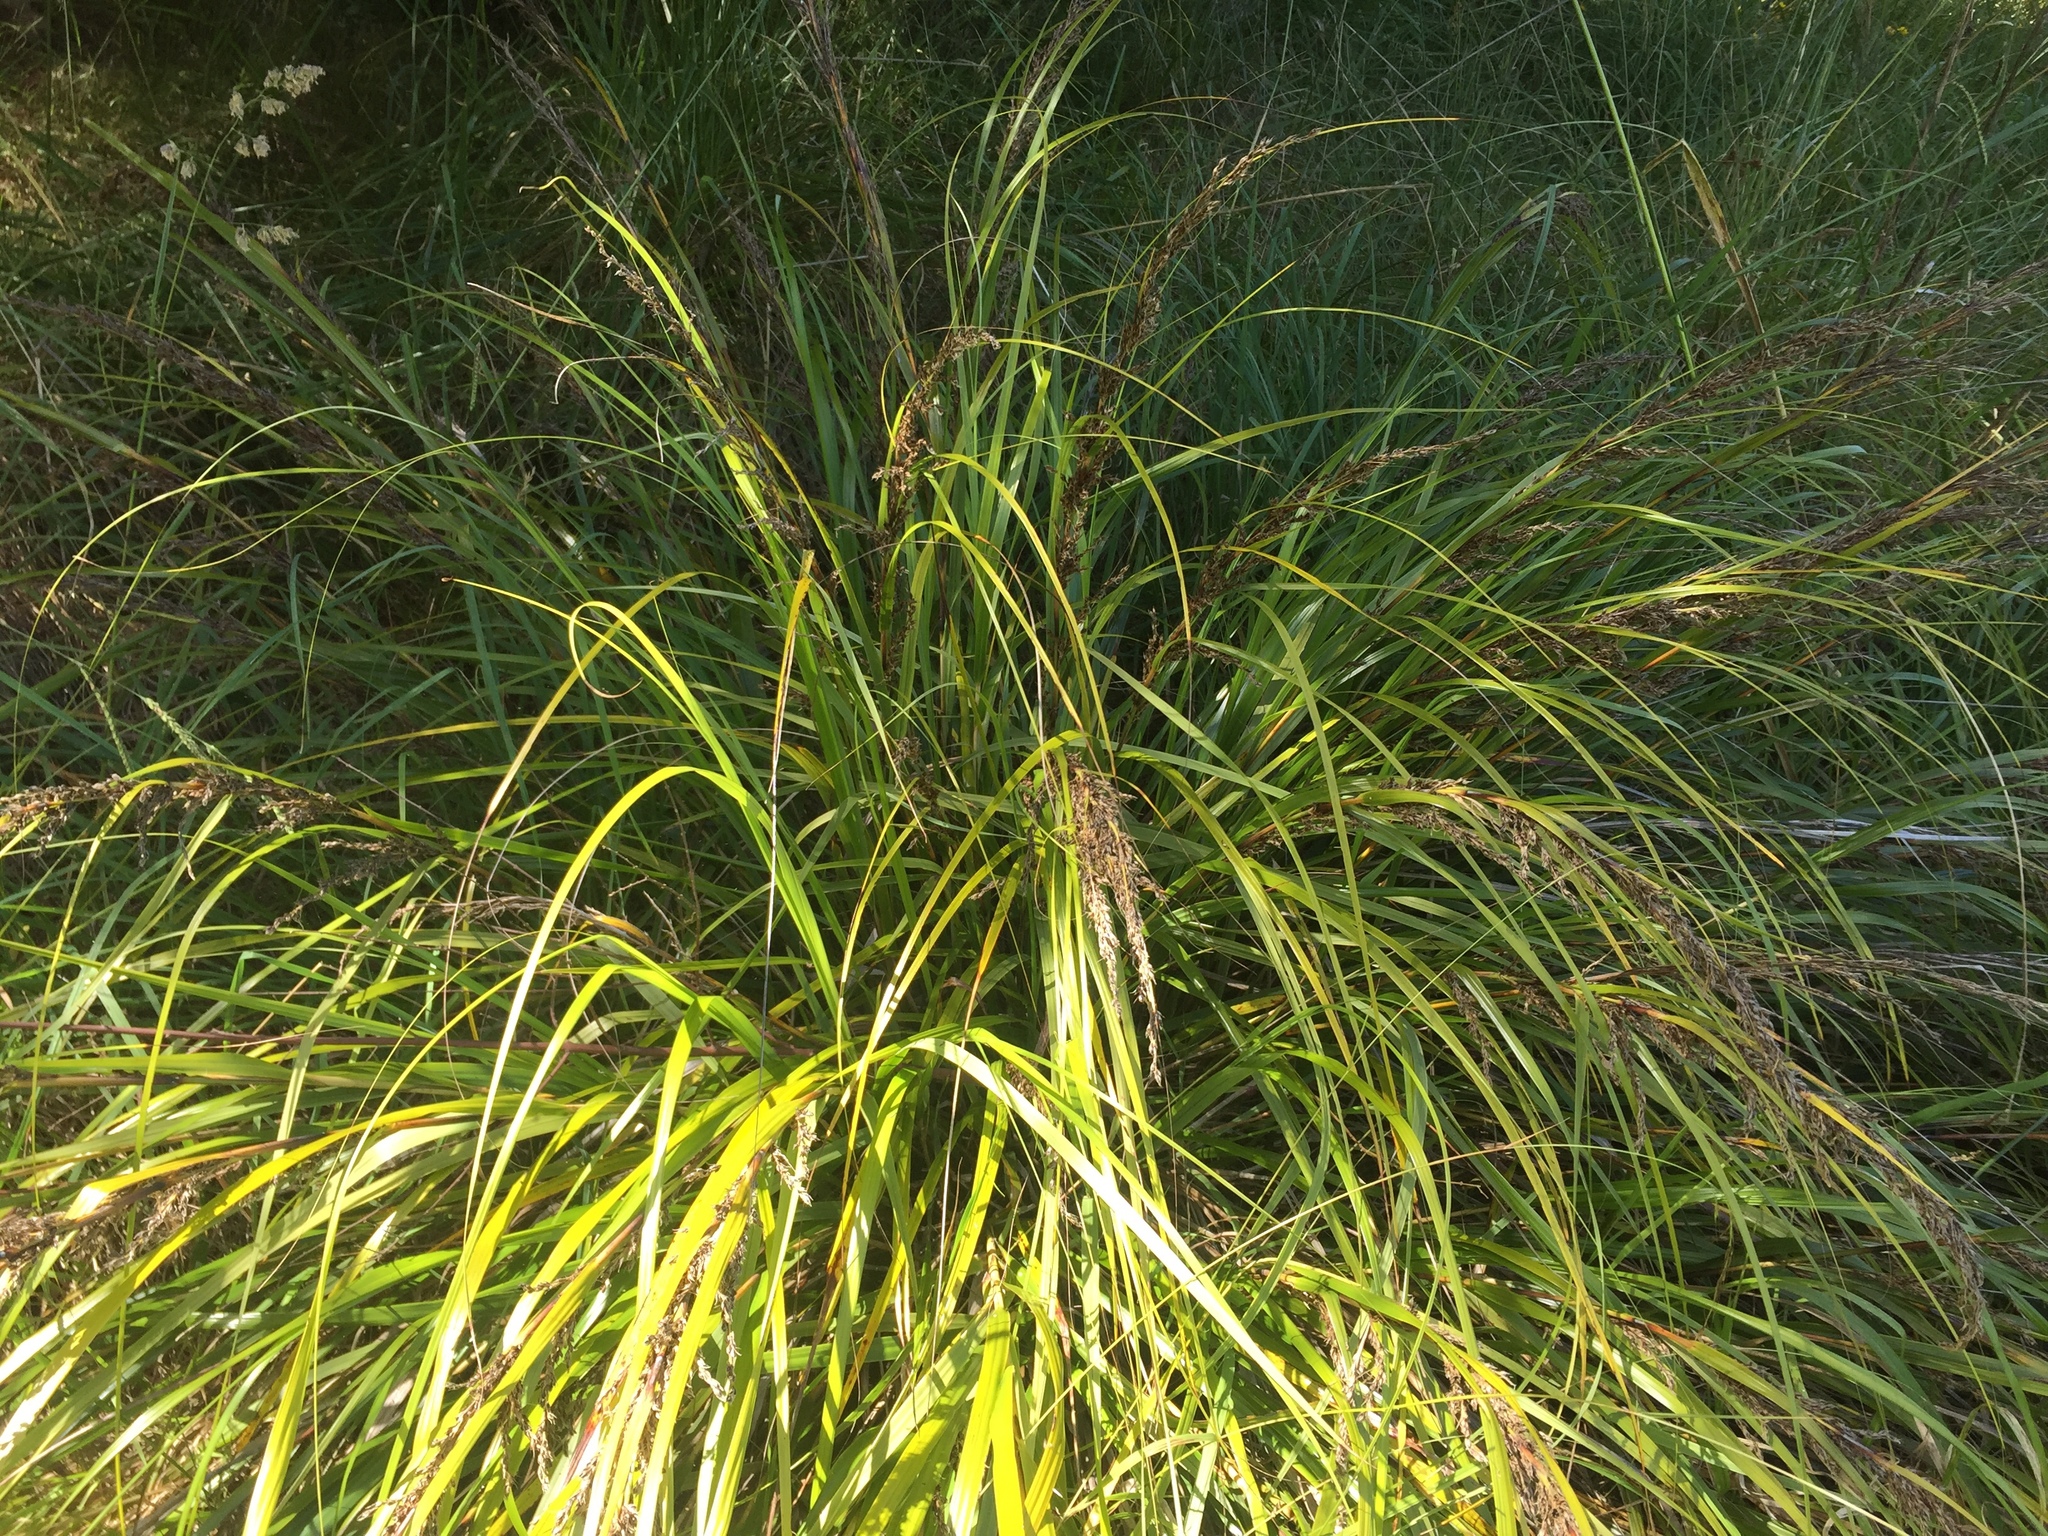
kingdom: Plantae
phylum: Tracheophyta
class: Liliopsida
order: Poales
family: Cyperaceae
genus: Gahnia
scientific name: Gahnia lacera
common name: Sawsedge
